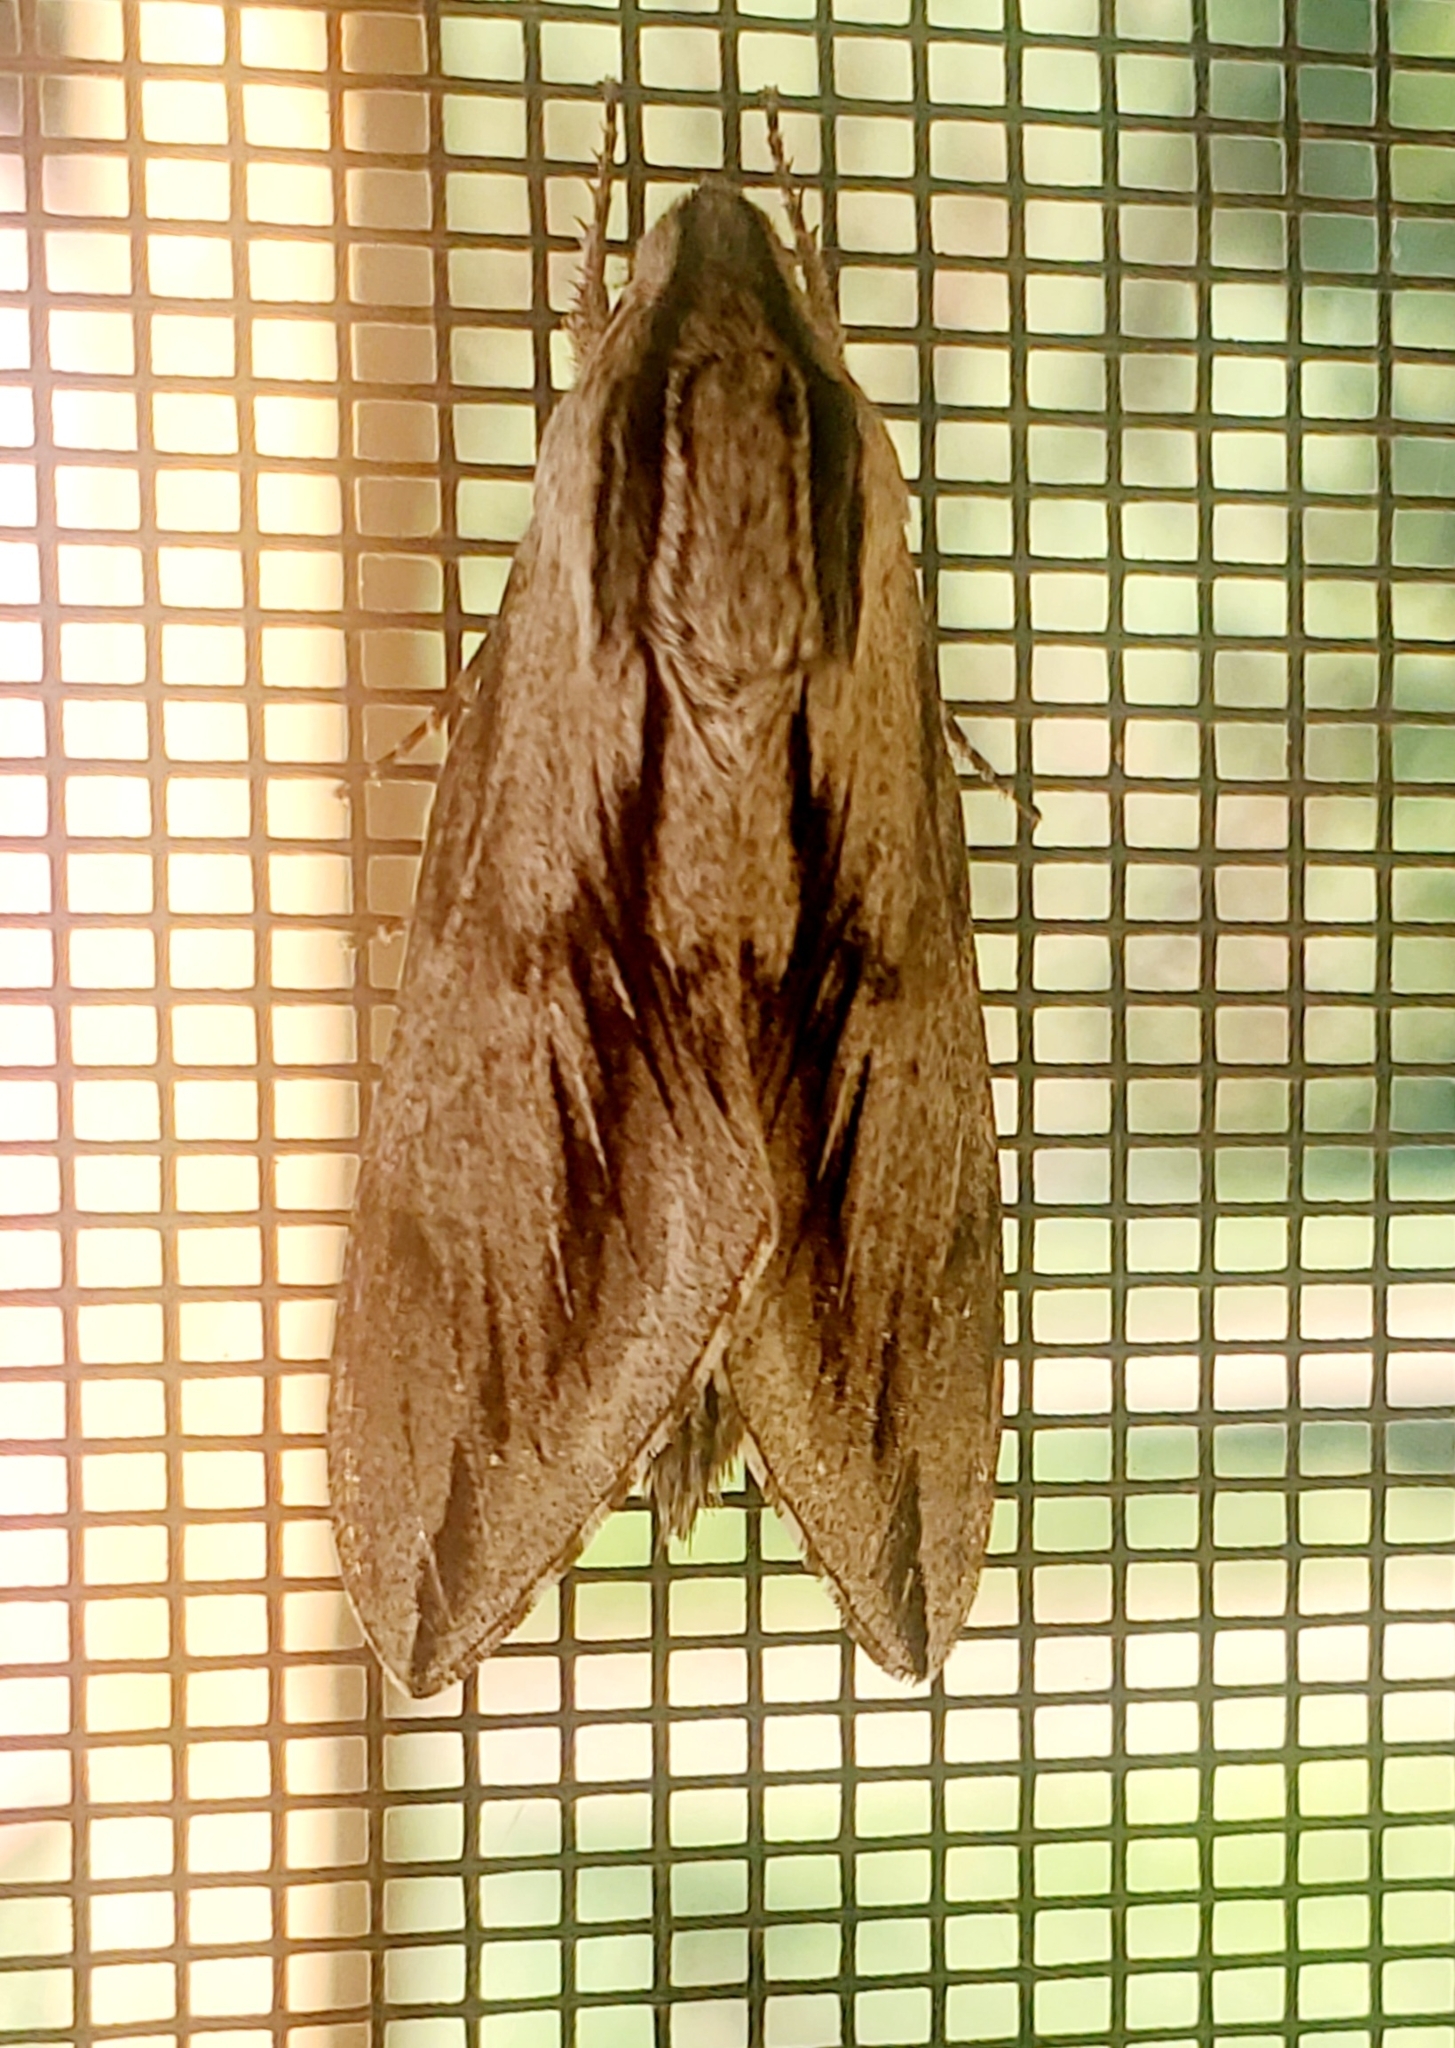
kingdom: Animalia
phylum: Arthropoda
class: Insecta
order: Lepidoptera
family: Sphingidae
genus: Sphinx
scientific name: Sphinx dollii
